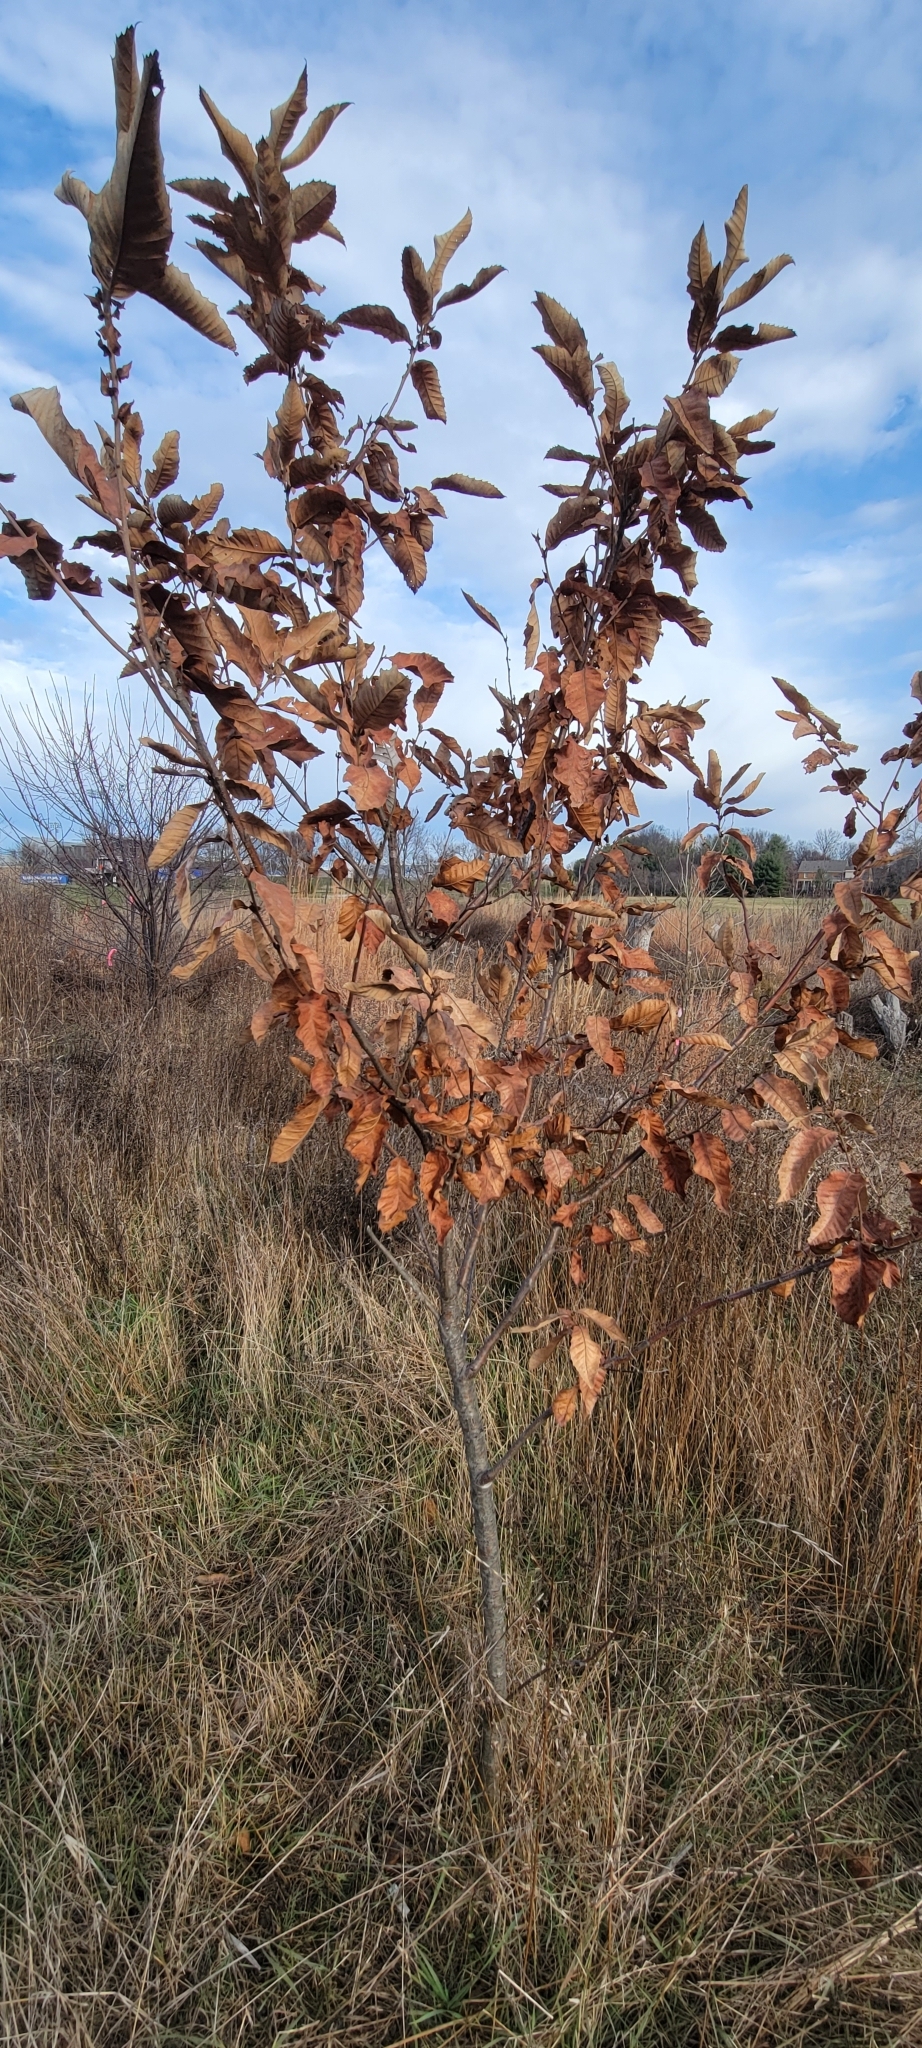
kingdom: Plantae
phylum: Tracheophyta
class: Magnoliopsida
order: Fagales
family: Fagaceae
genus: Castanea
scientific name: Castanea mollissima
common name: Chinese chestnut
